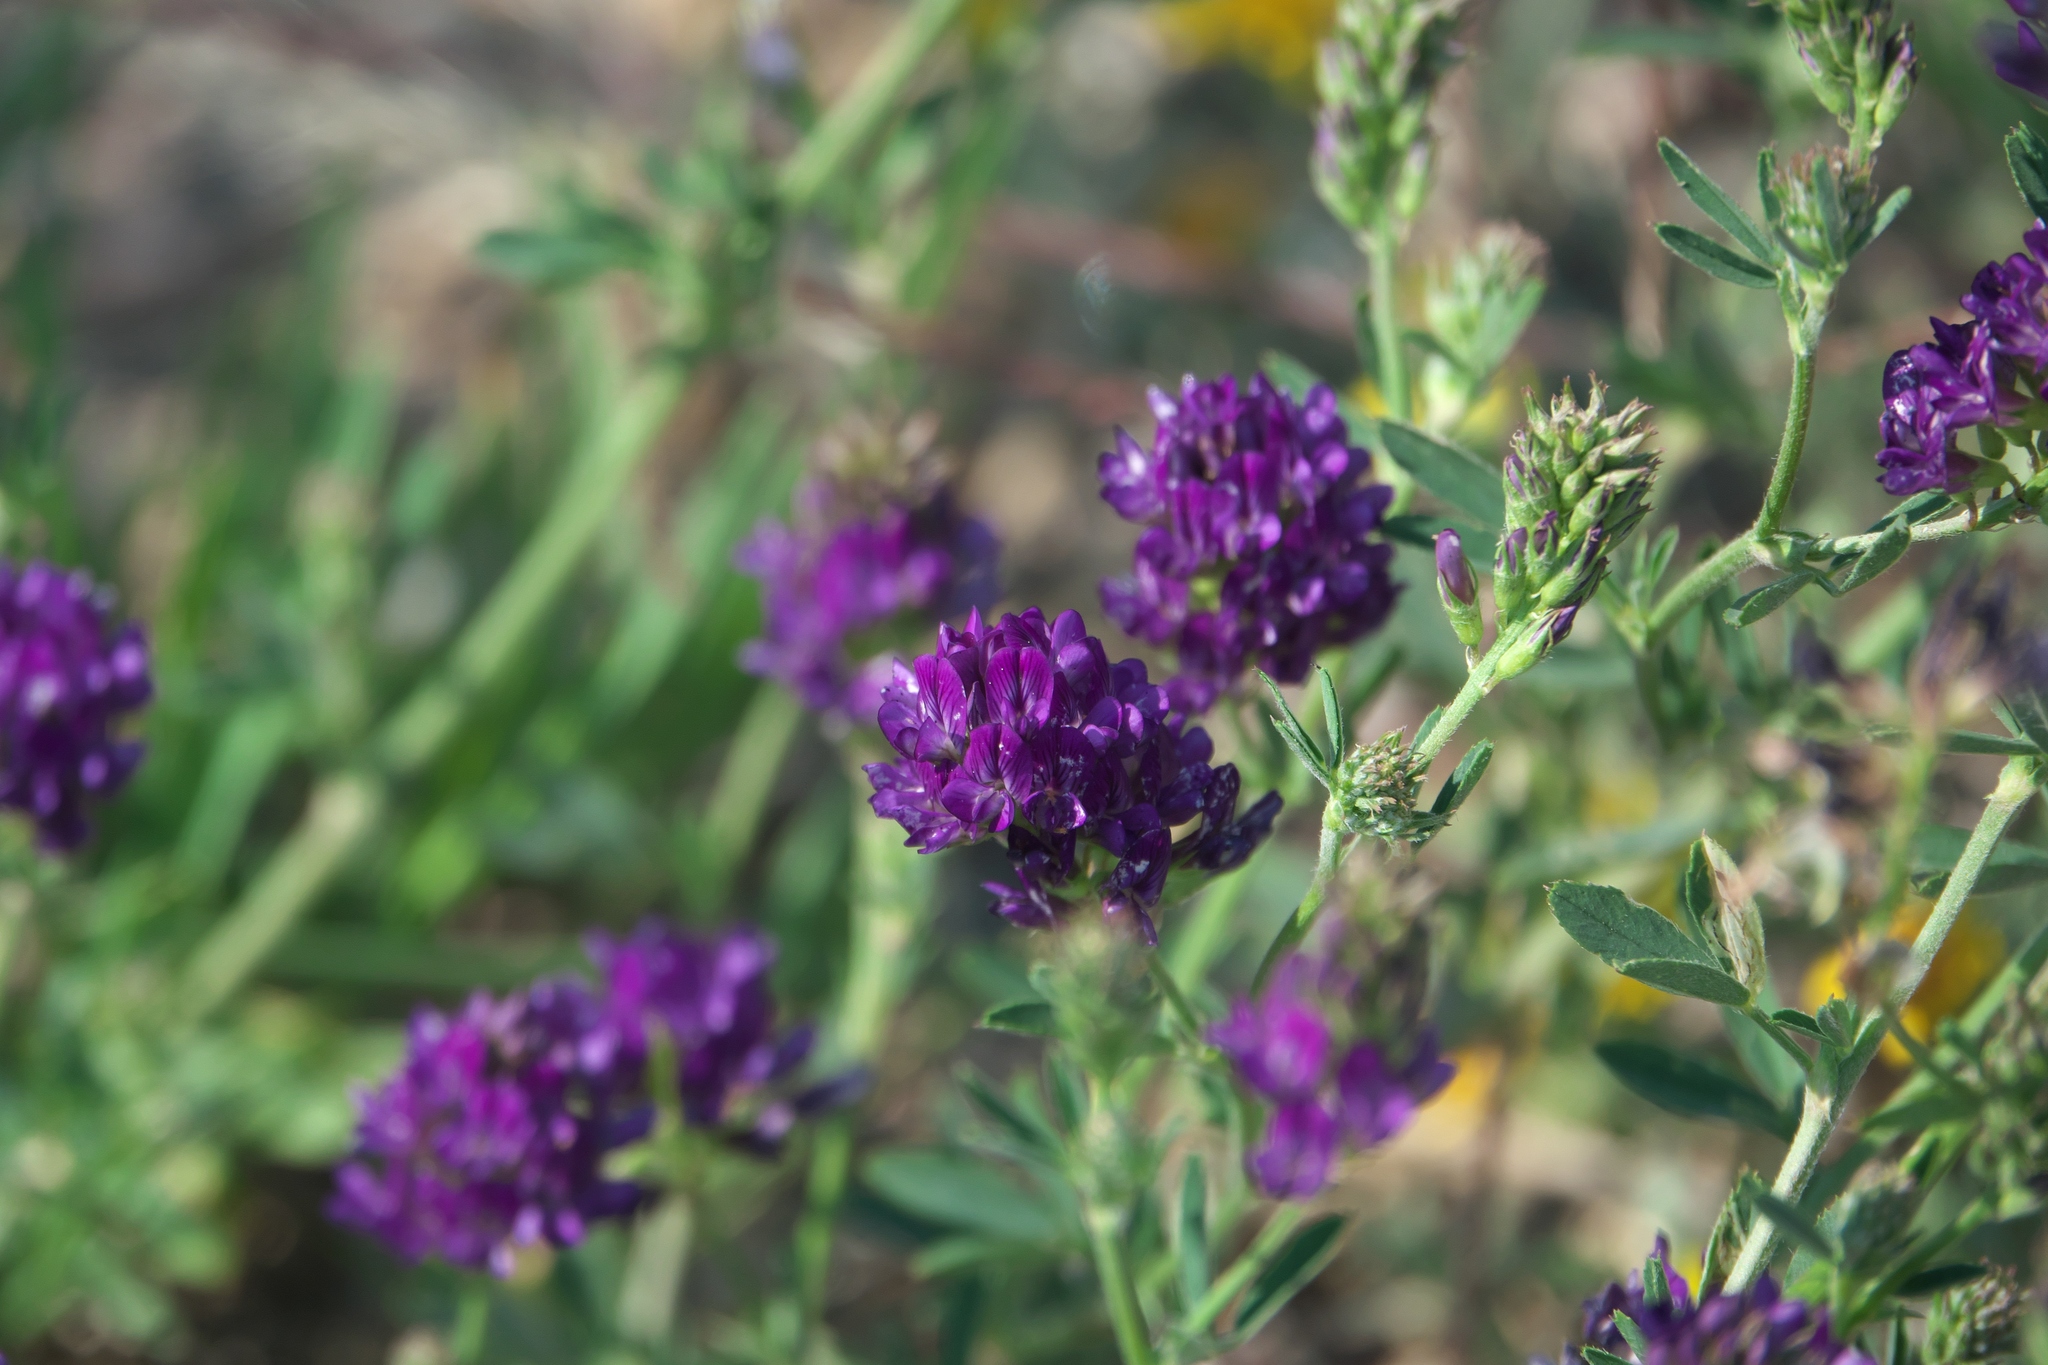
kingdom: Plantae
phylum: Tracheophyta
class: Magnoliopsida
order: Fabales
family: Fabaceae
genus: Medicago
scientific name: Medicago sativa
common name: Alfalfa
